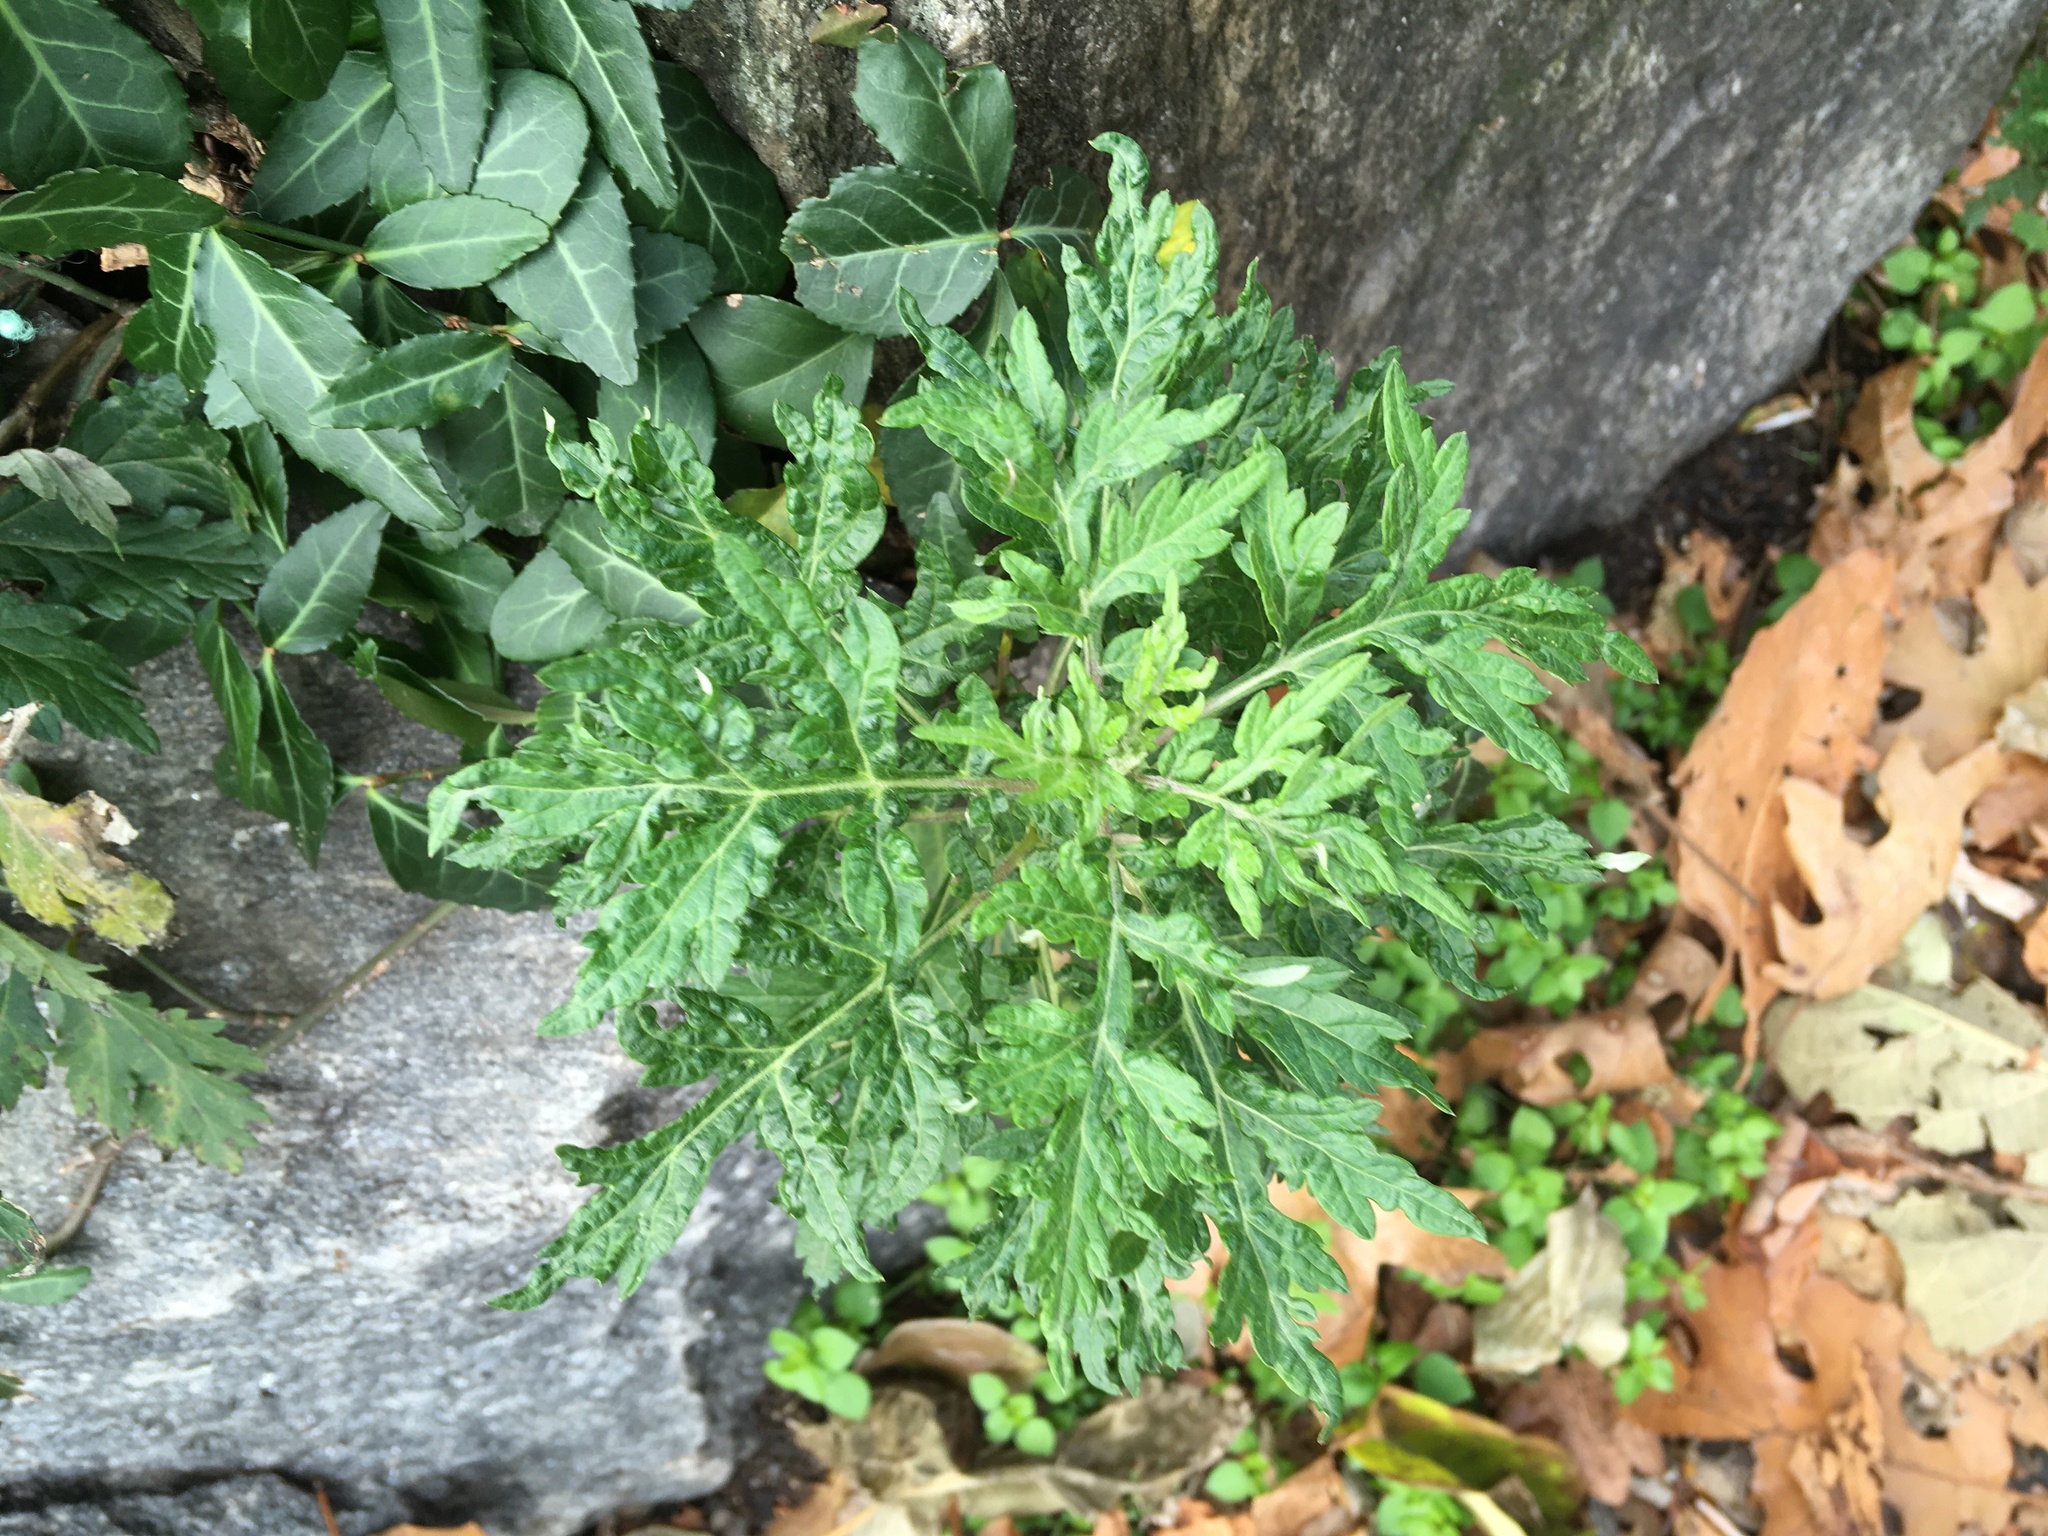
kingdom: Plantae
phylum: Tracheophyta
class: Magnoliopsida
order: Asterales
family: Asteraceae
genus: Artemisia
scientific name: Artemisia vulgaris
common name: Mugwort
